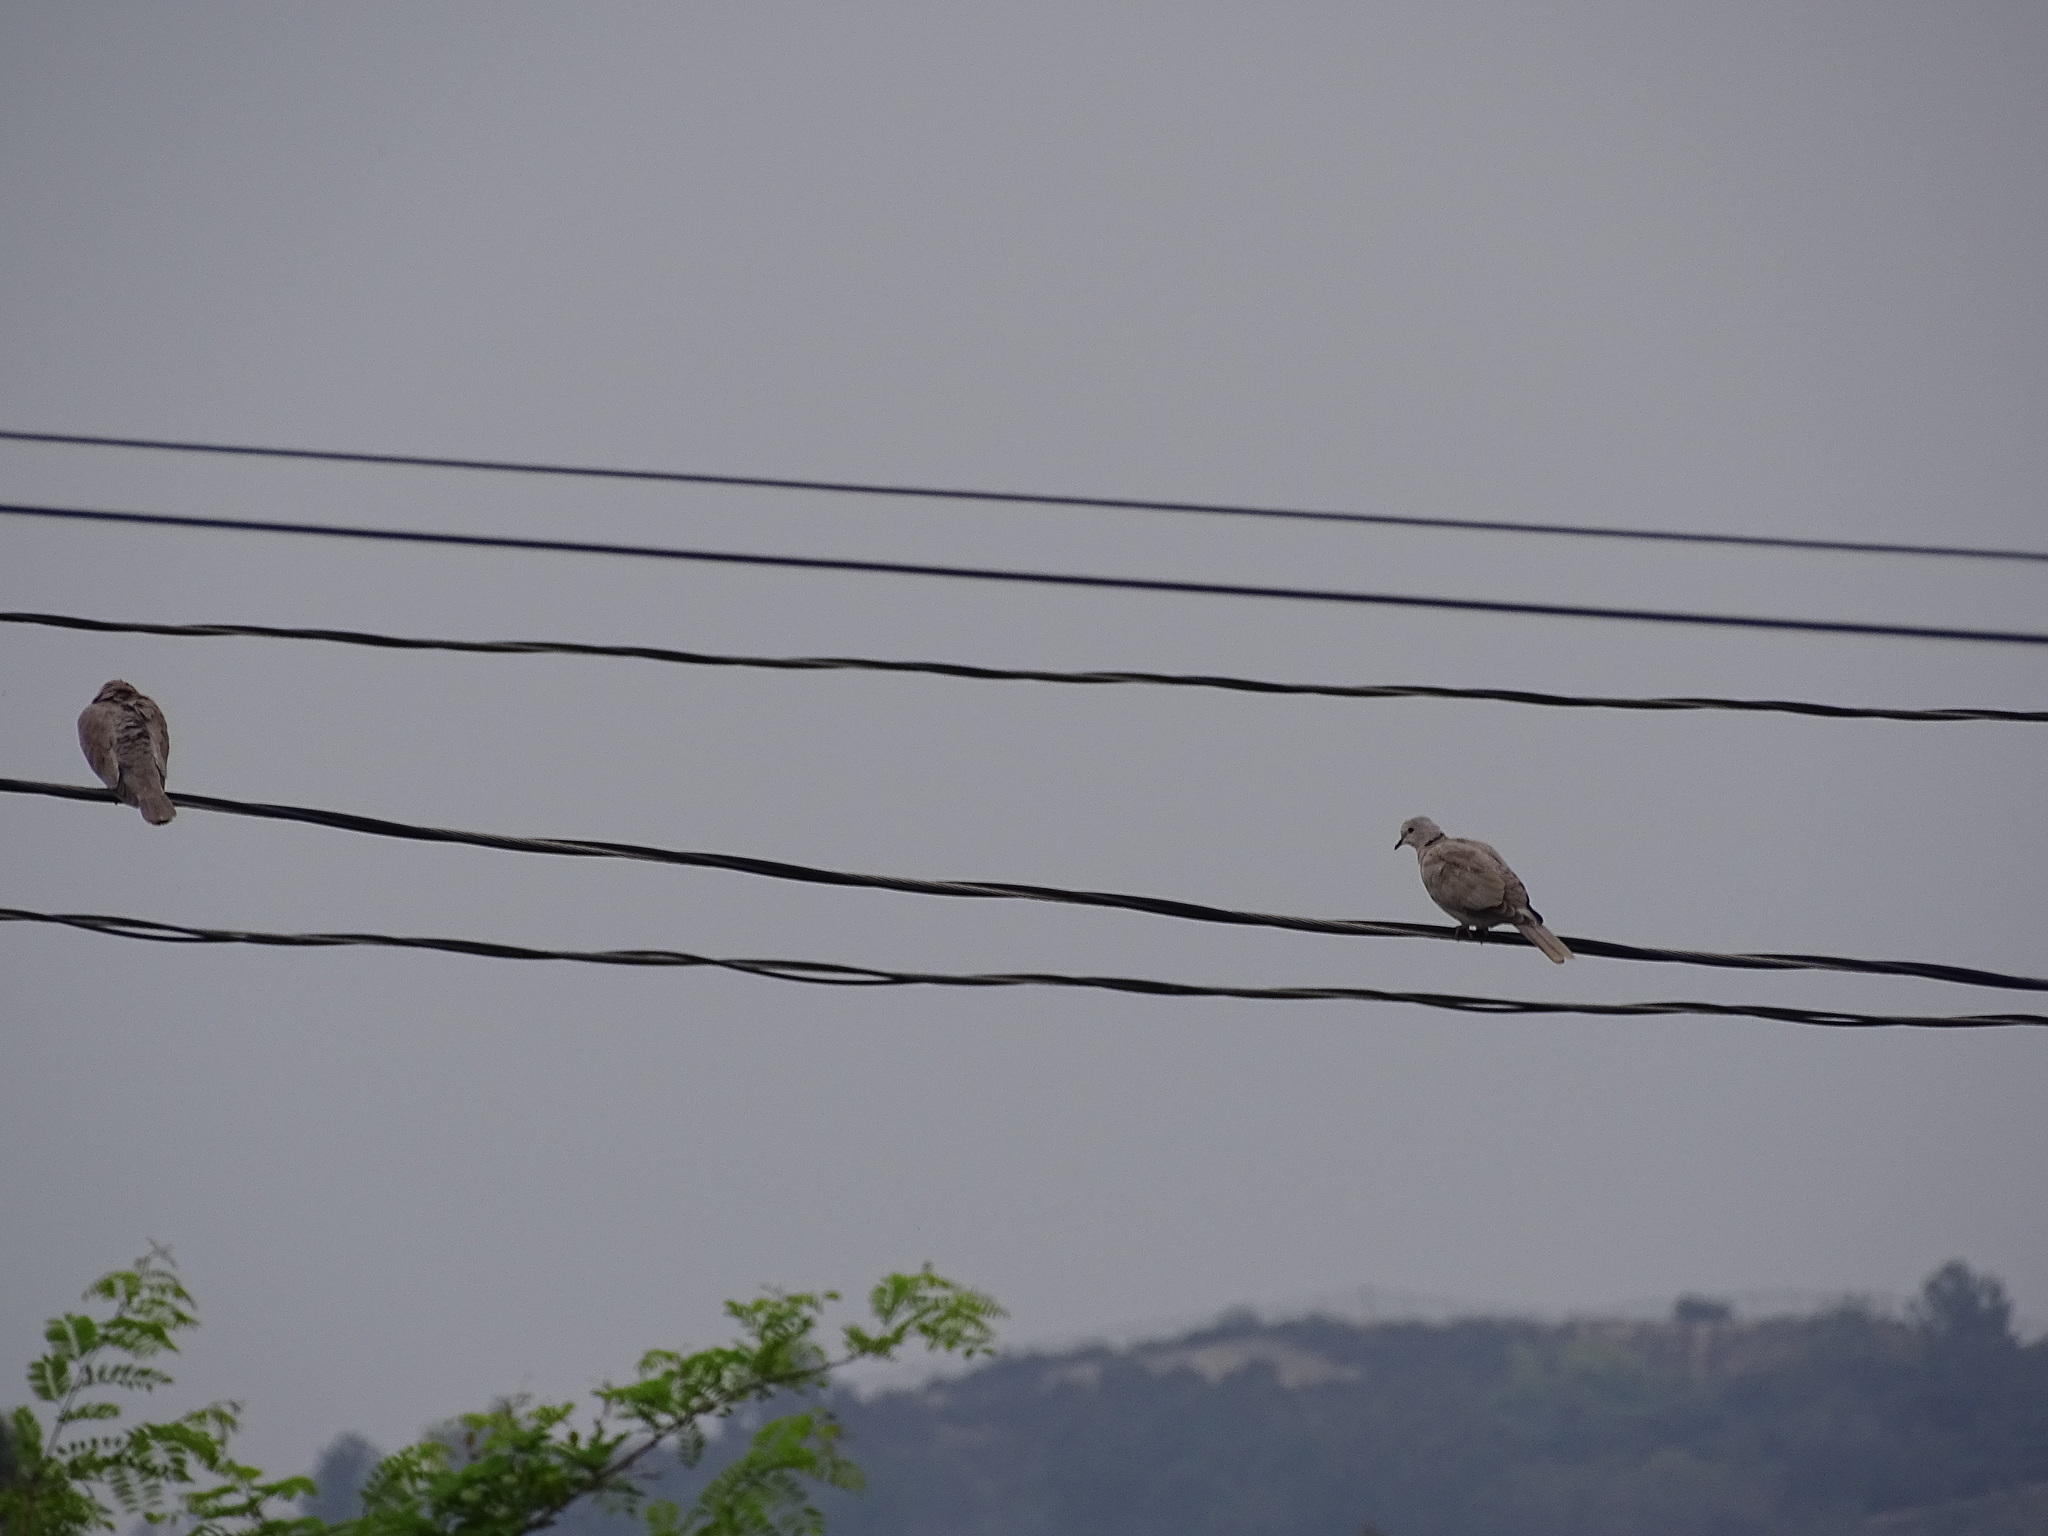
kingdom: Animalia
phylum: Chordata
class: Aves
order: Columbiformes
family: Columbidae
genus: Streptopelia
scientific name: Streptopelia decaocto
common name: Eurasian collared dove
